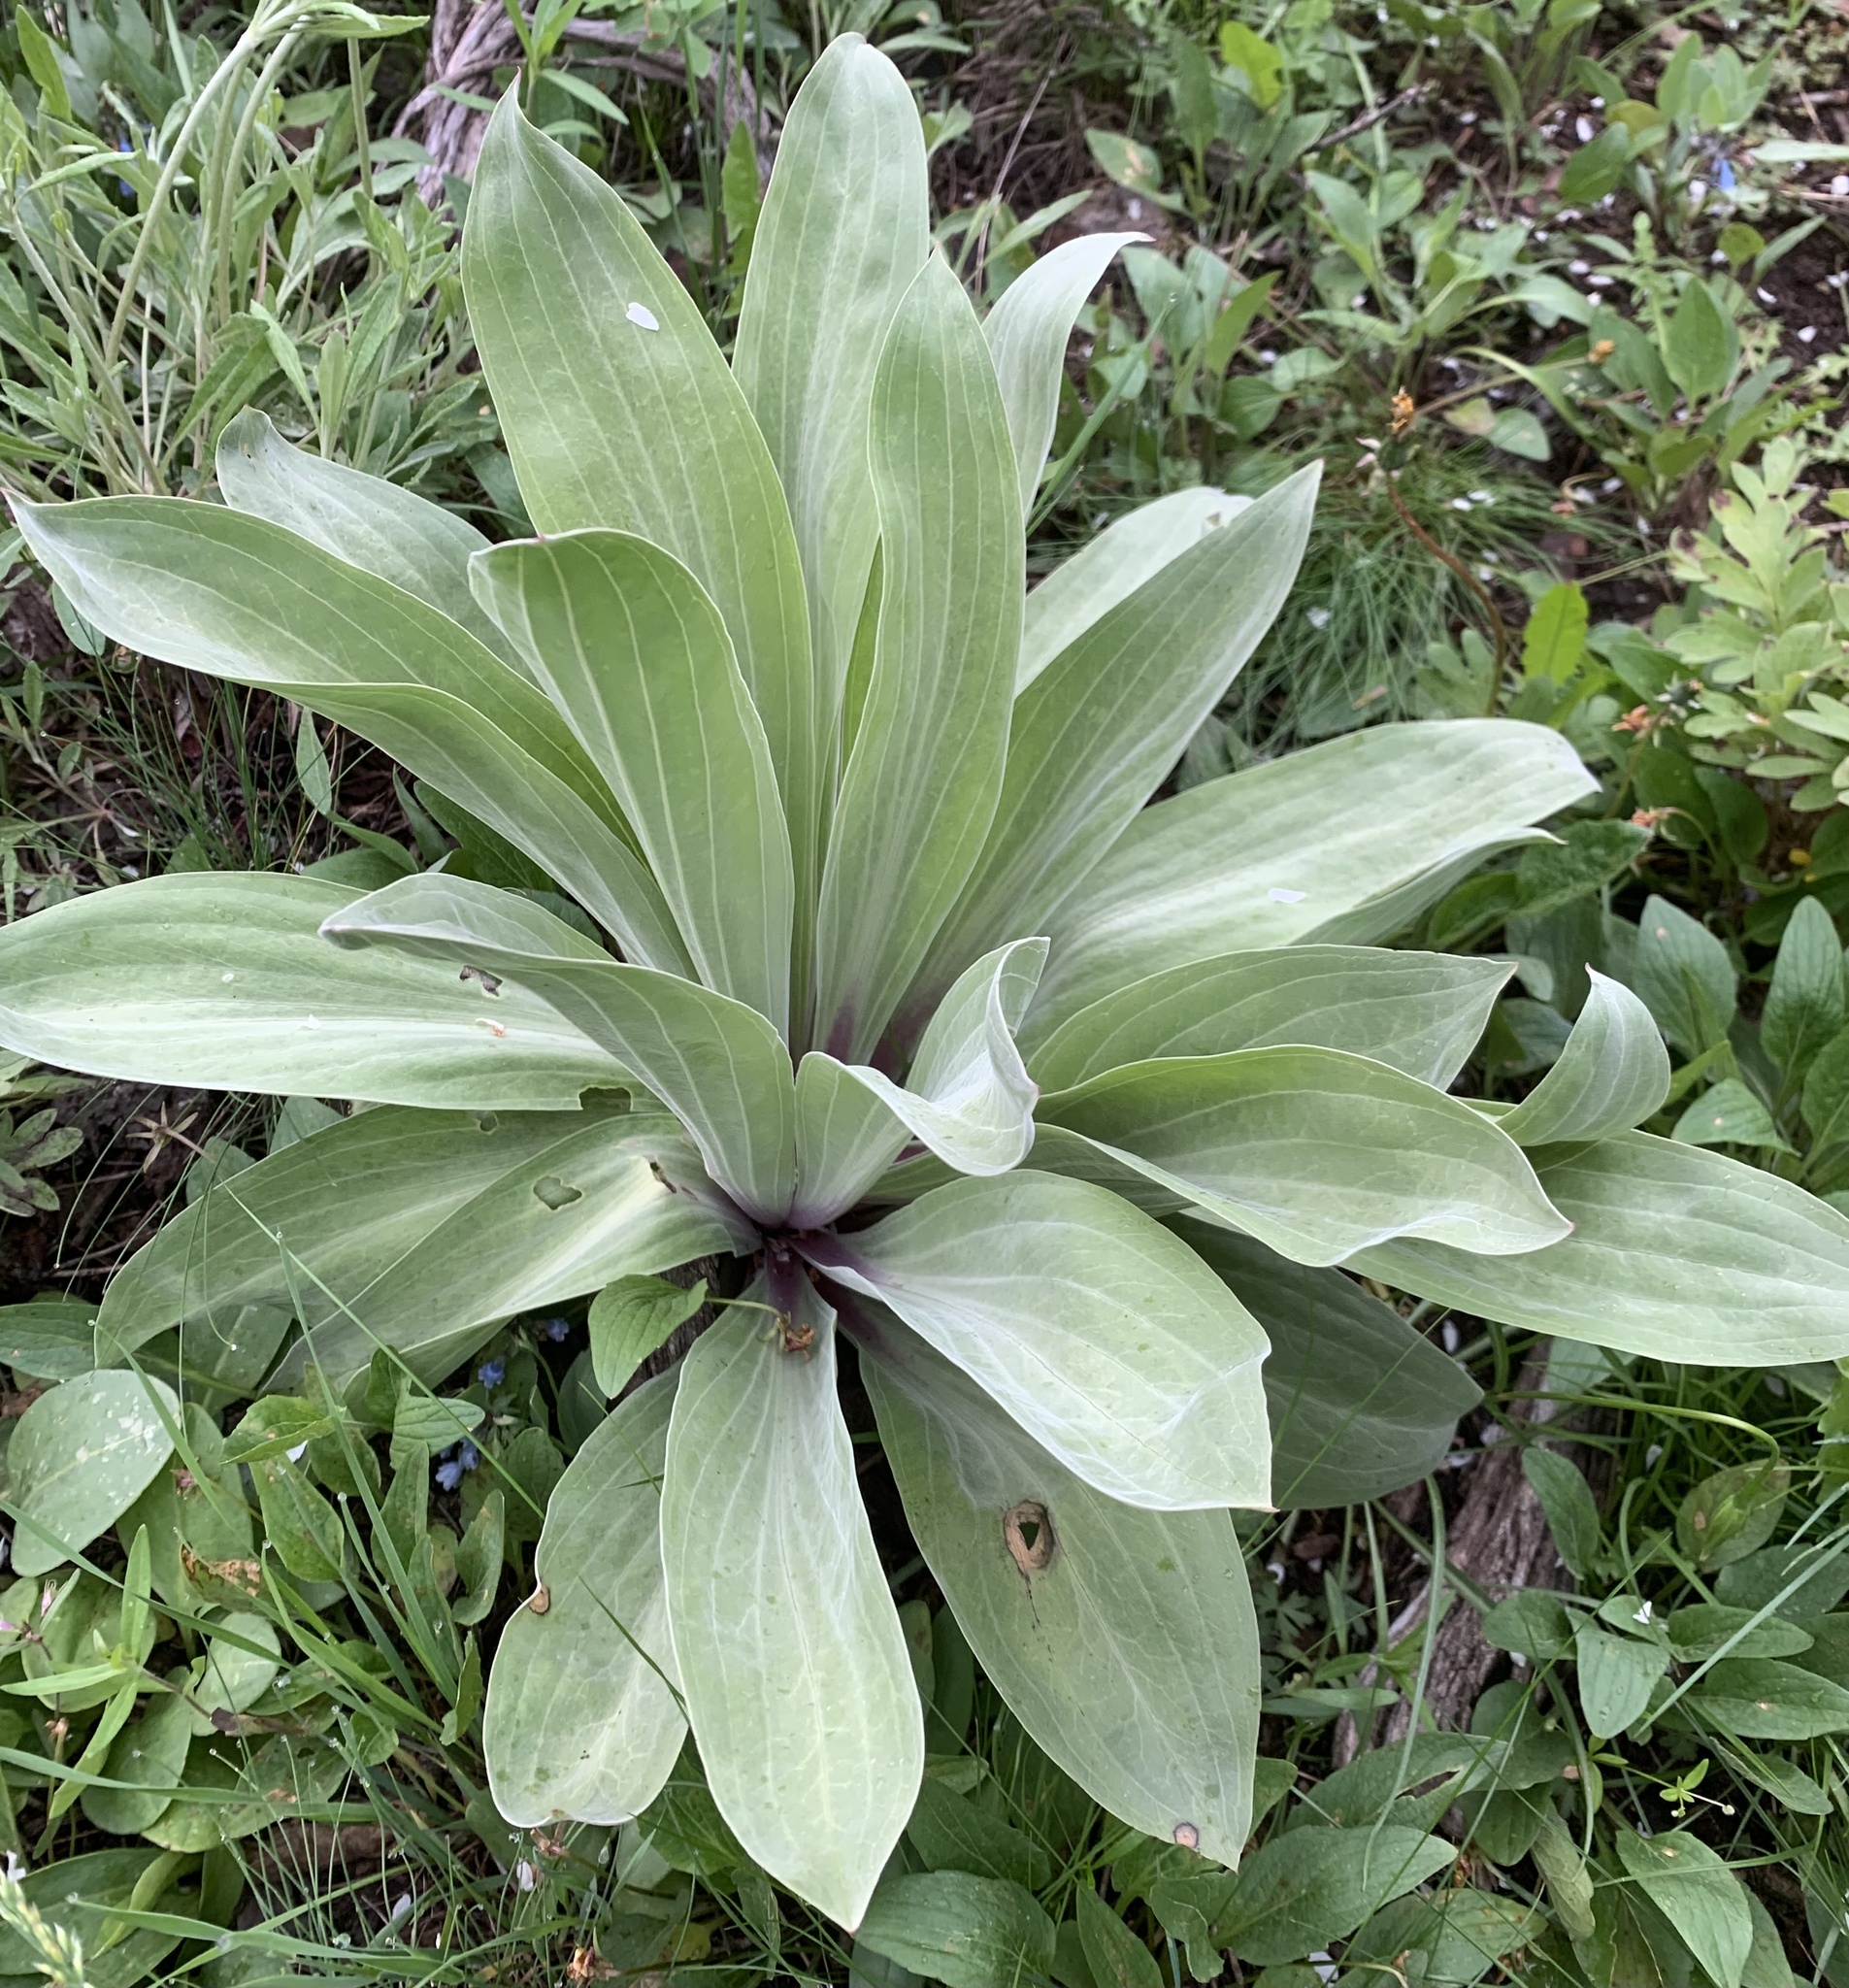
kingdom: Plantae
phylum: Tracheophyta
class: Magnoliopsida
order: Gentianales
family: Gentianaceae
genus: Frasera
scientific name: Frasera speciosa
